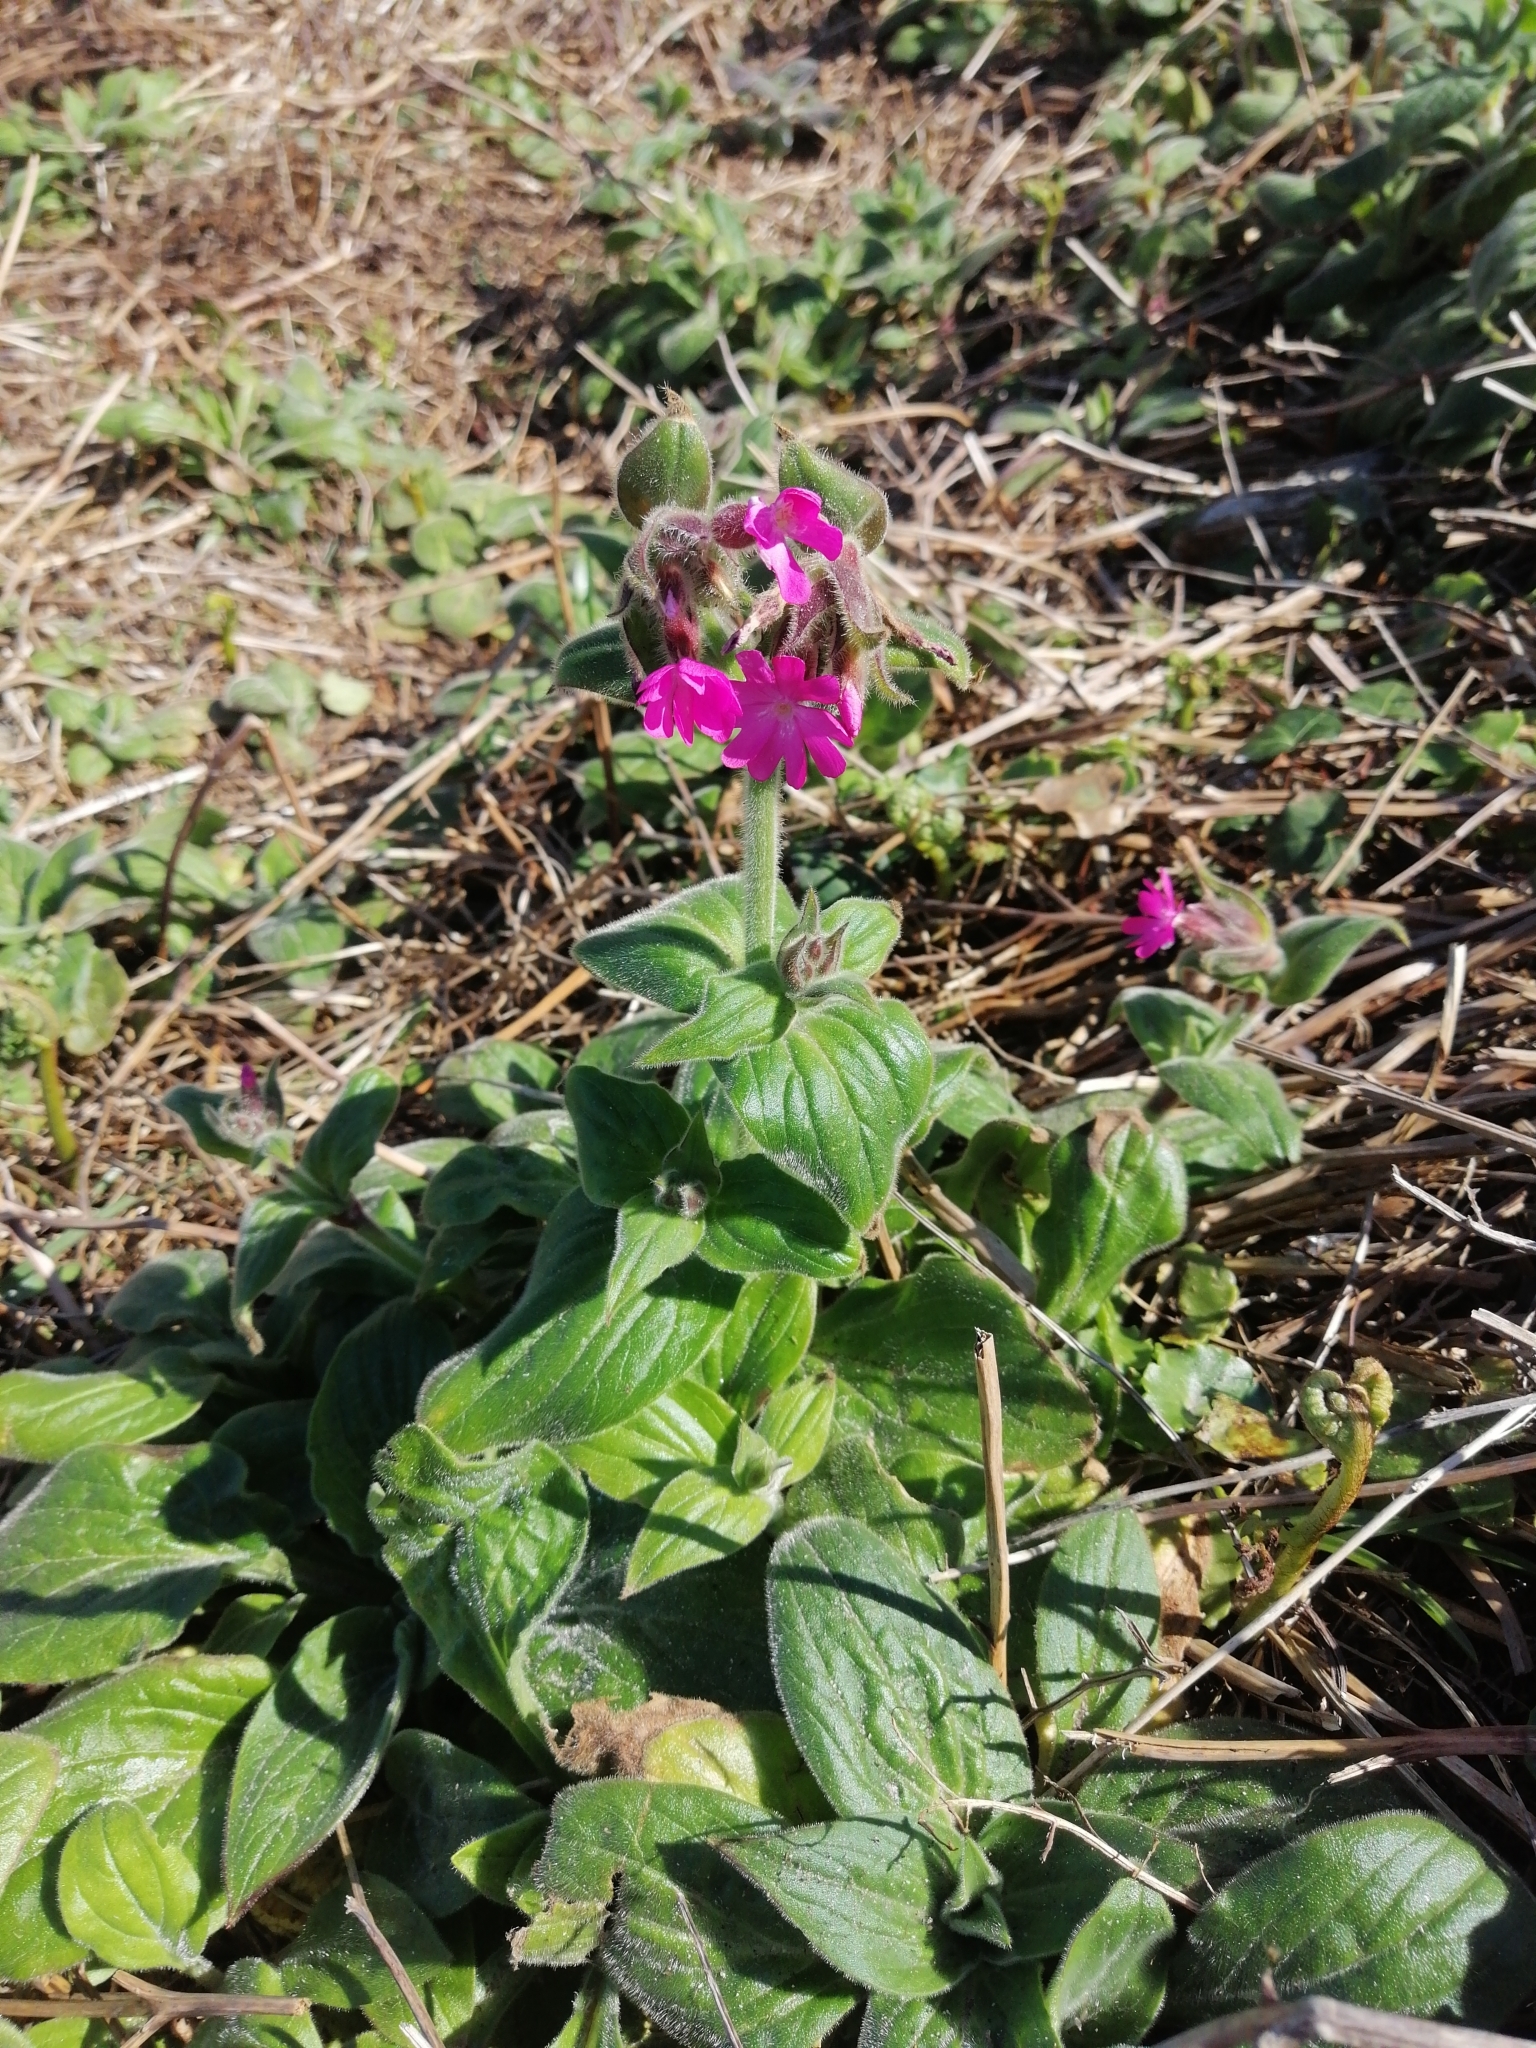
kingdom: Plantae
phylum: Tracheophyta
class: Magnoliopsida
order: Caryophyllales
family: Caryophyllaceae
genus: Silene
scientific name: Silene dioica
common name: Red campion
